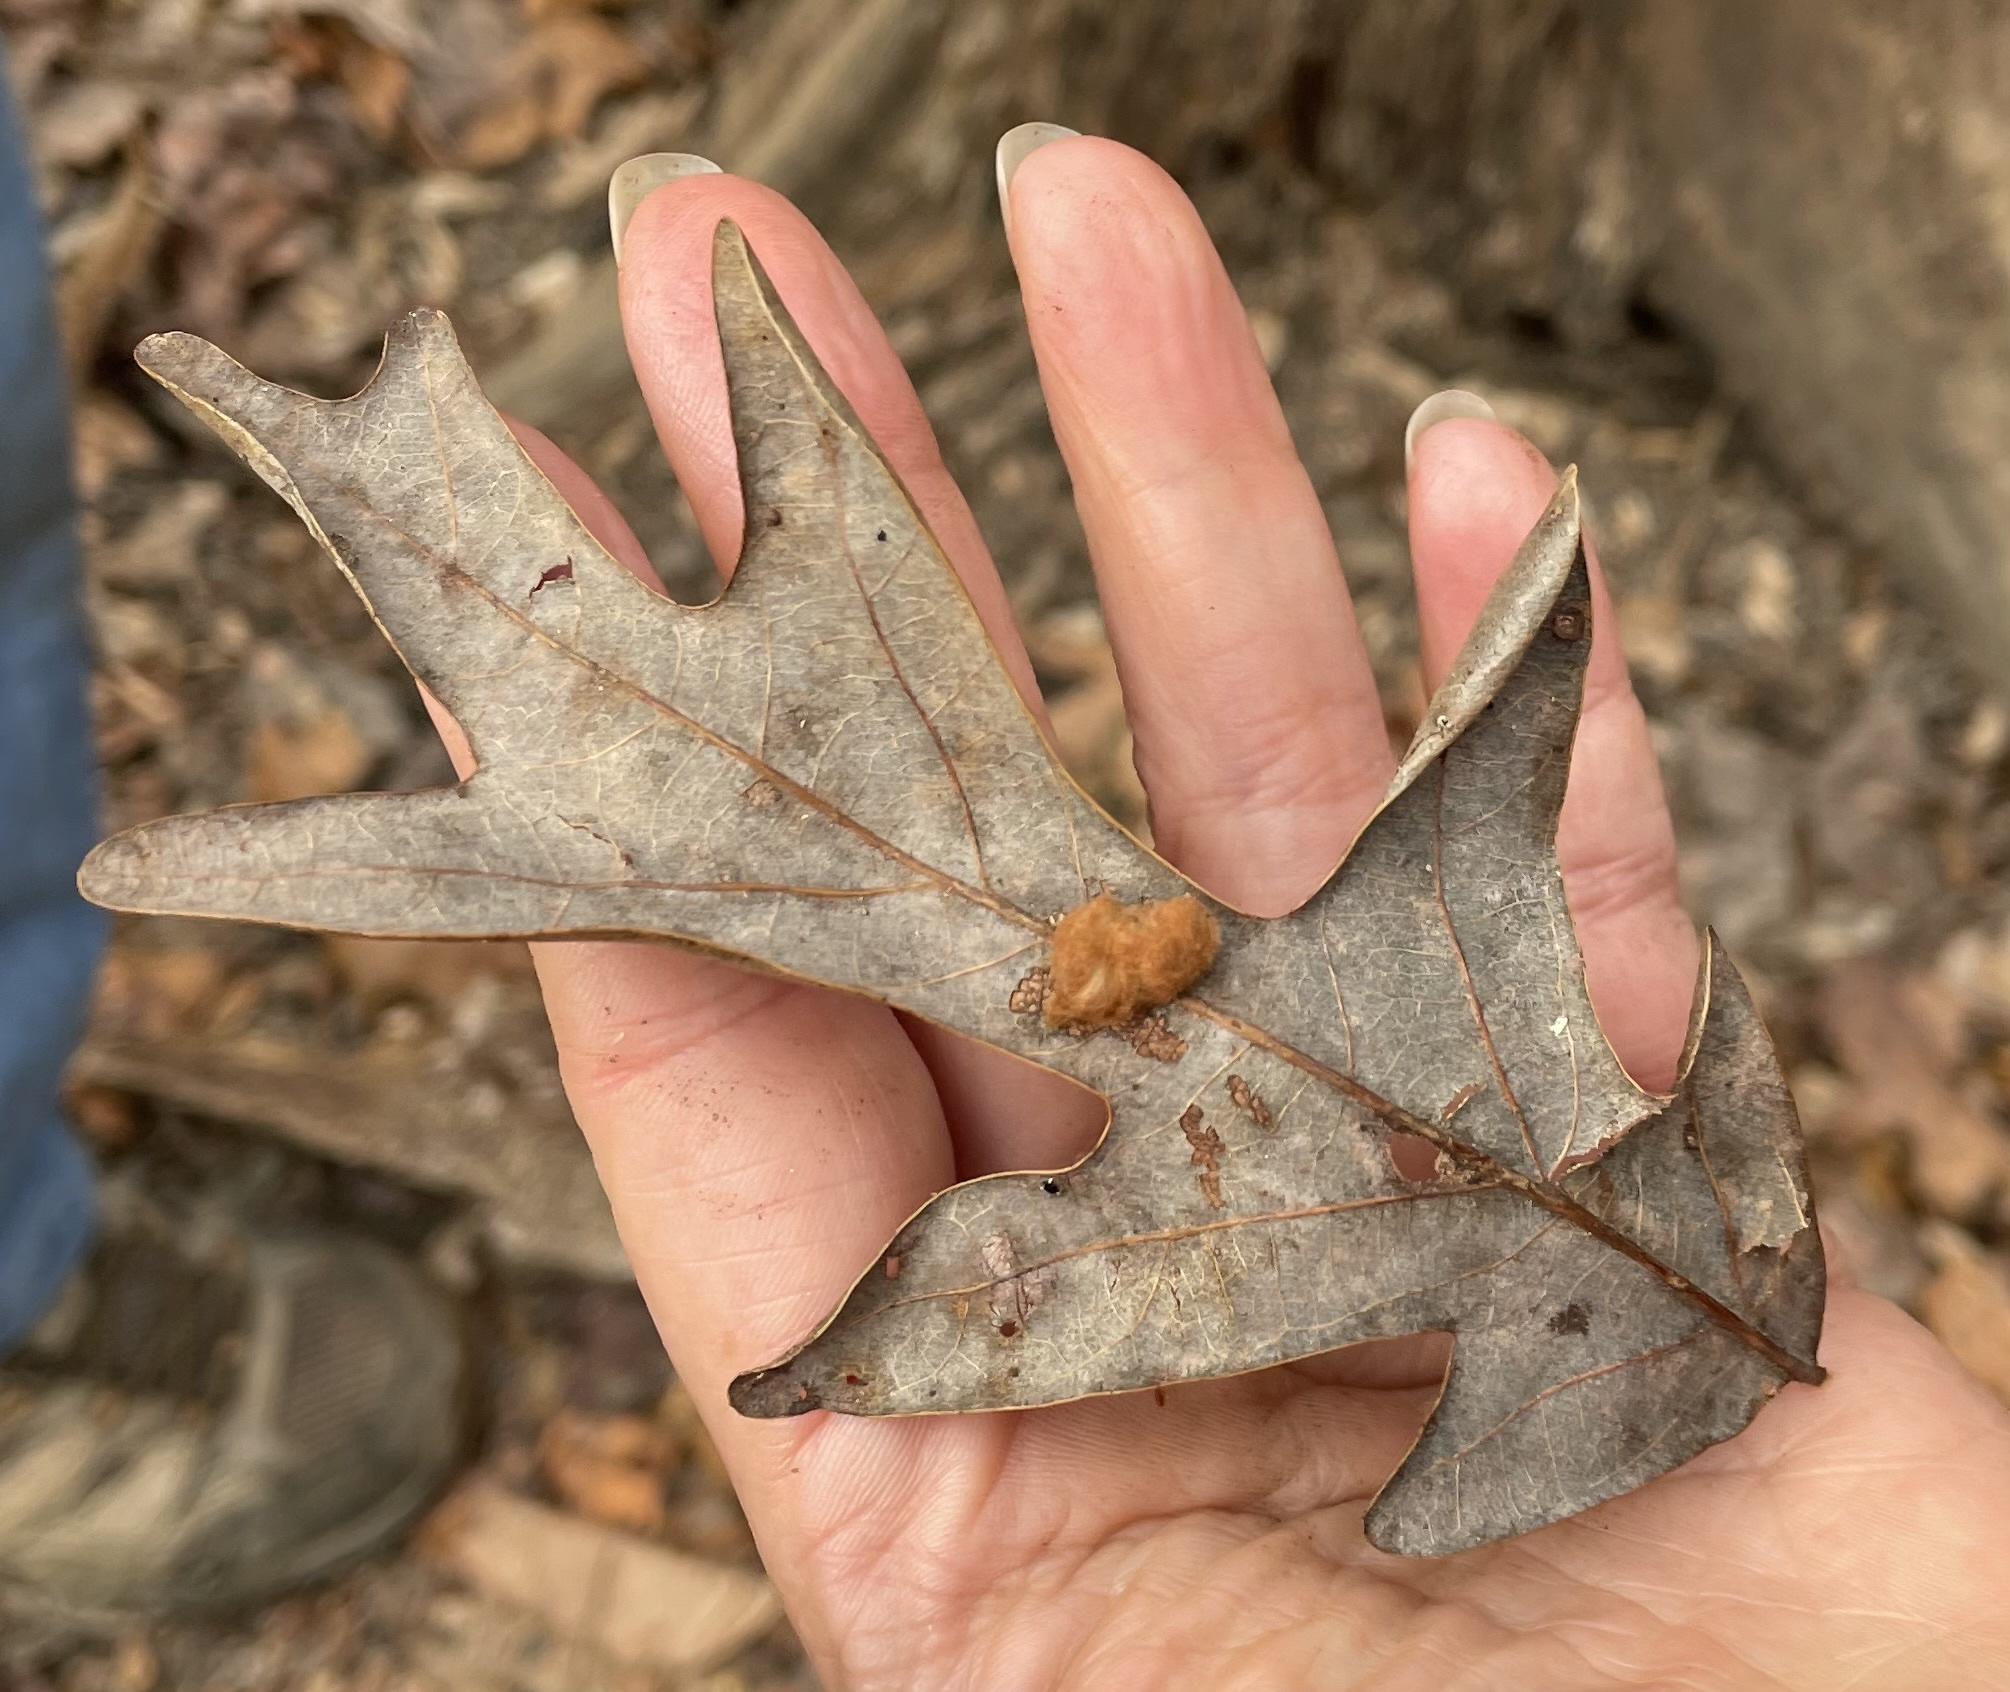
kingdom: Animalia
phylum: Arthropoda
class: Insecta
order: Hymenoptera
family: Cynipidae
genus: Andricus
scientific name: Andricus quercusflocci
